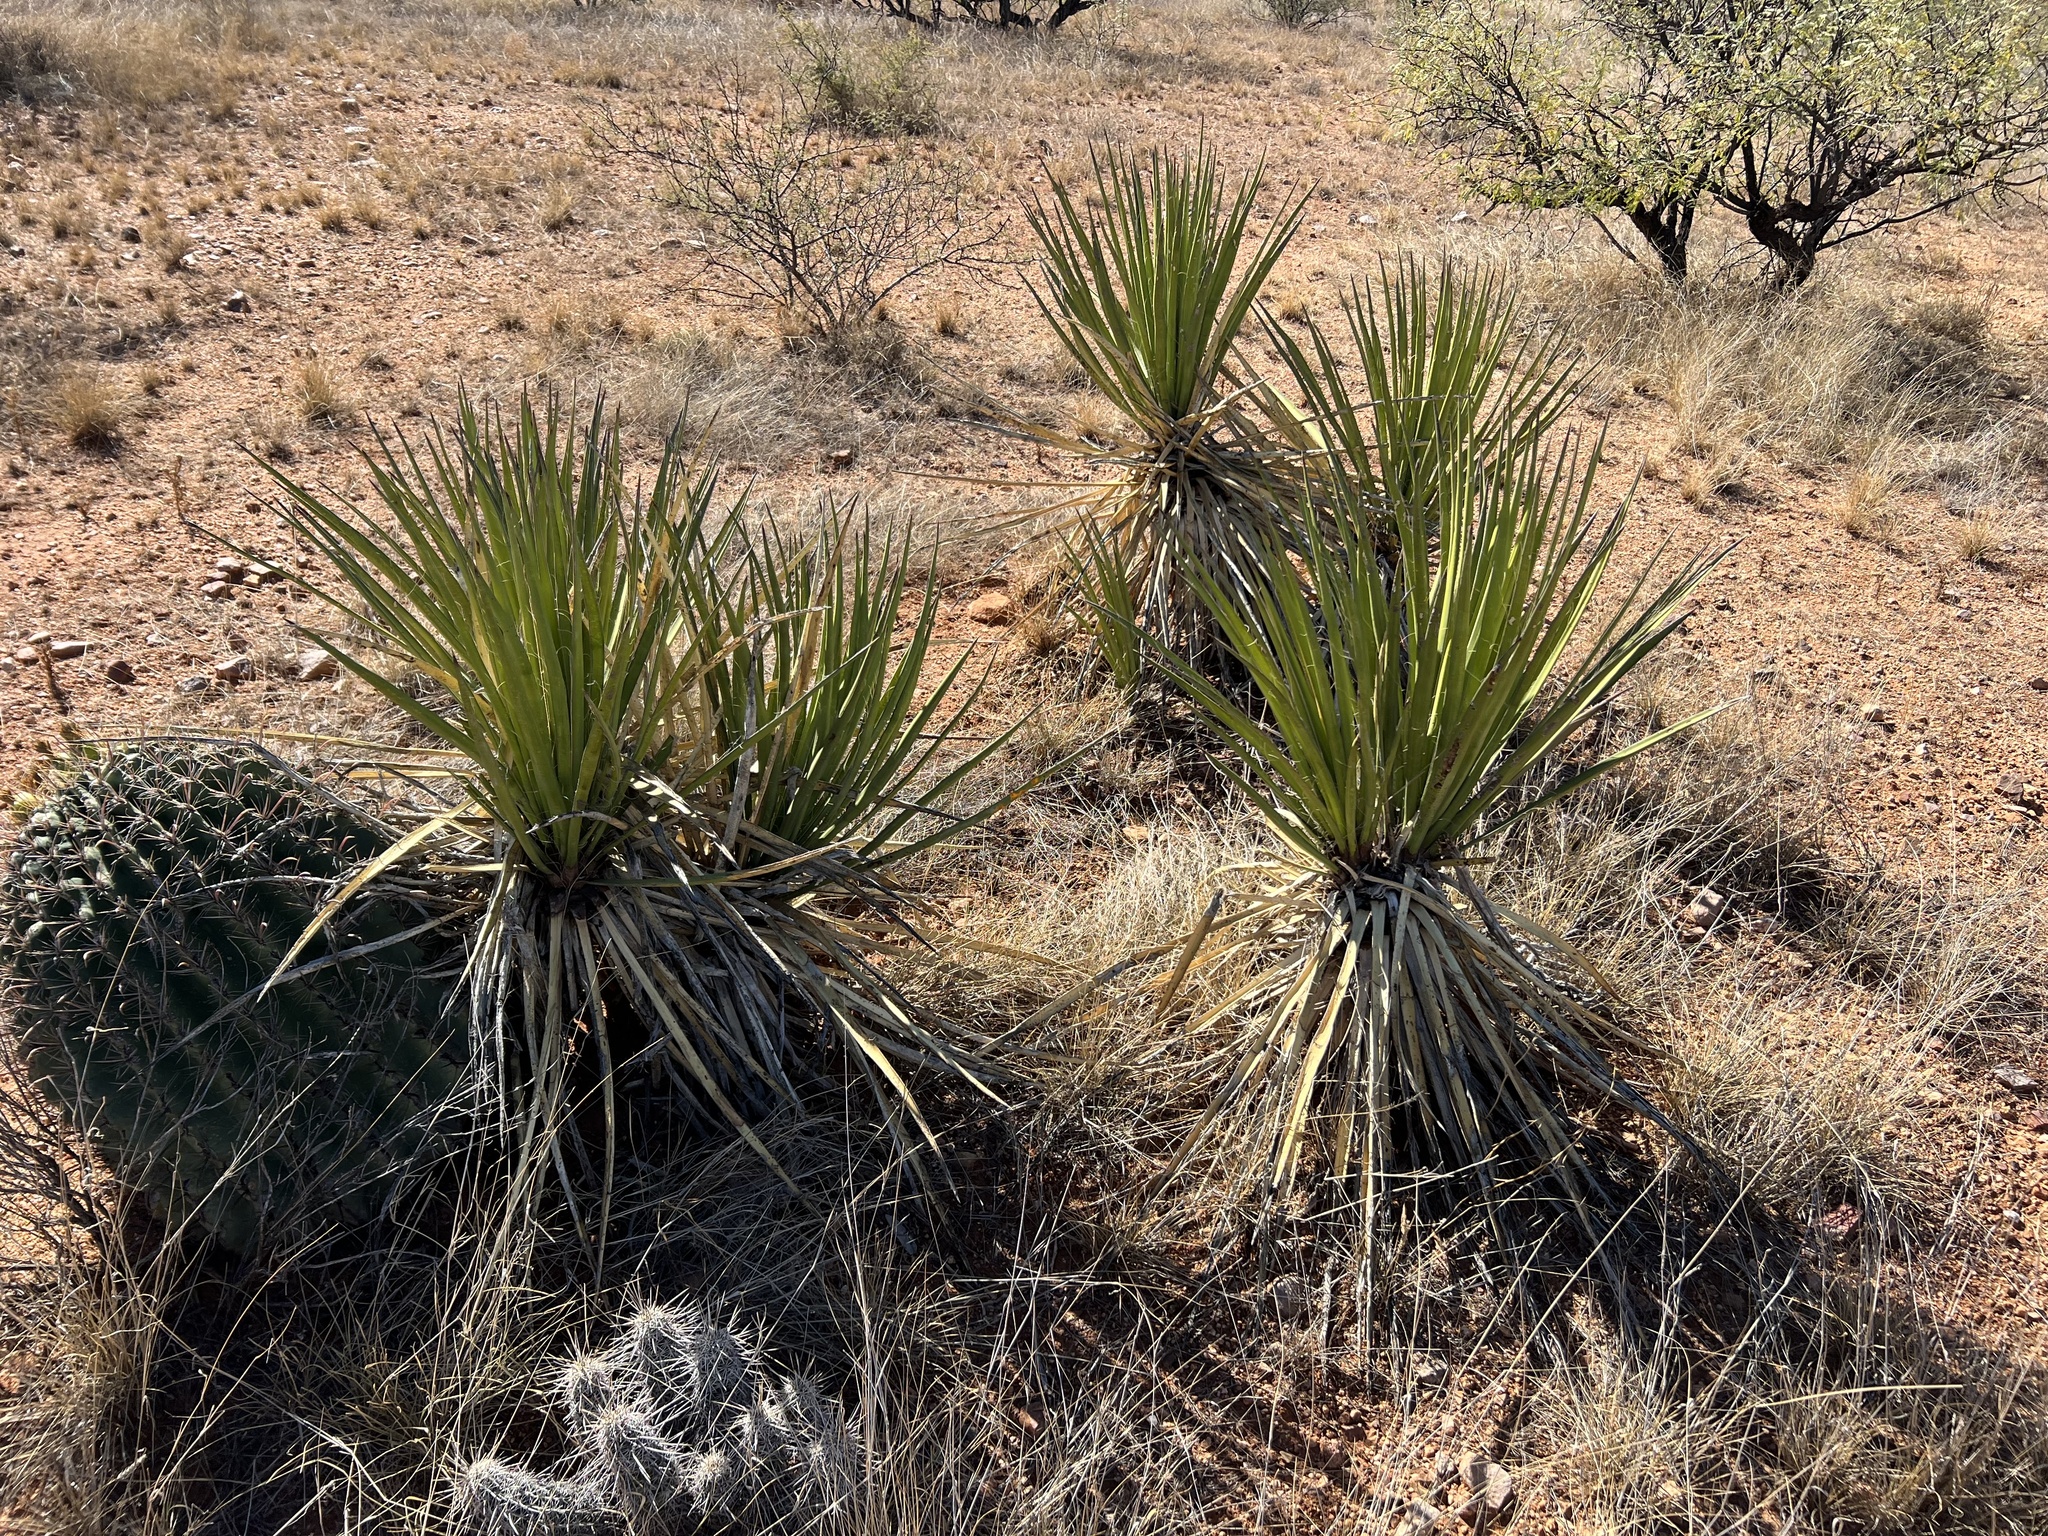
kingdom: Plantae
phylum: Tracheophyta
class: Liliopsida
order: Asparagales
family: Asparagaceae
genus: Yucca
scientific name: Yucca baccata
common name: Banana yucca
